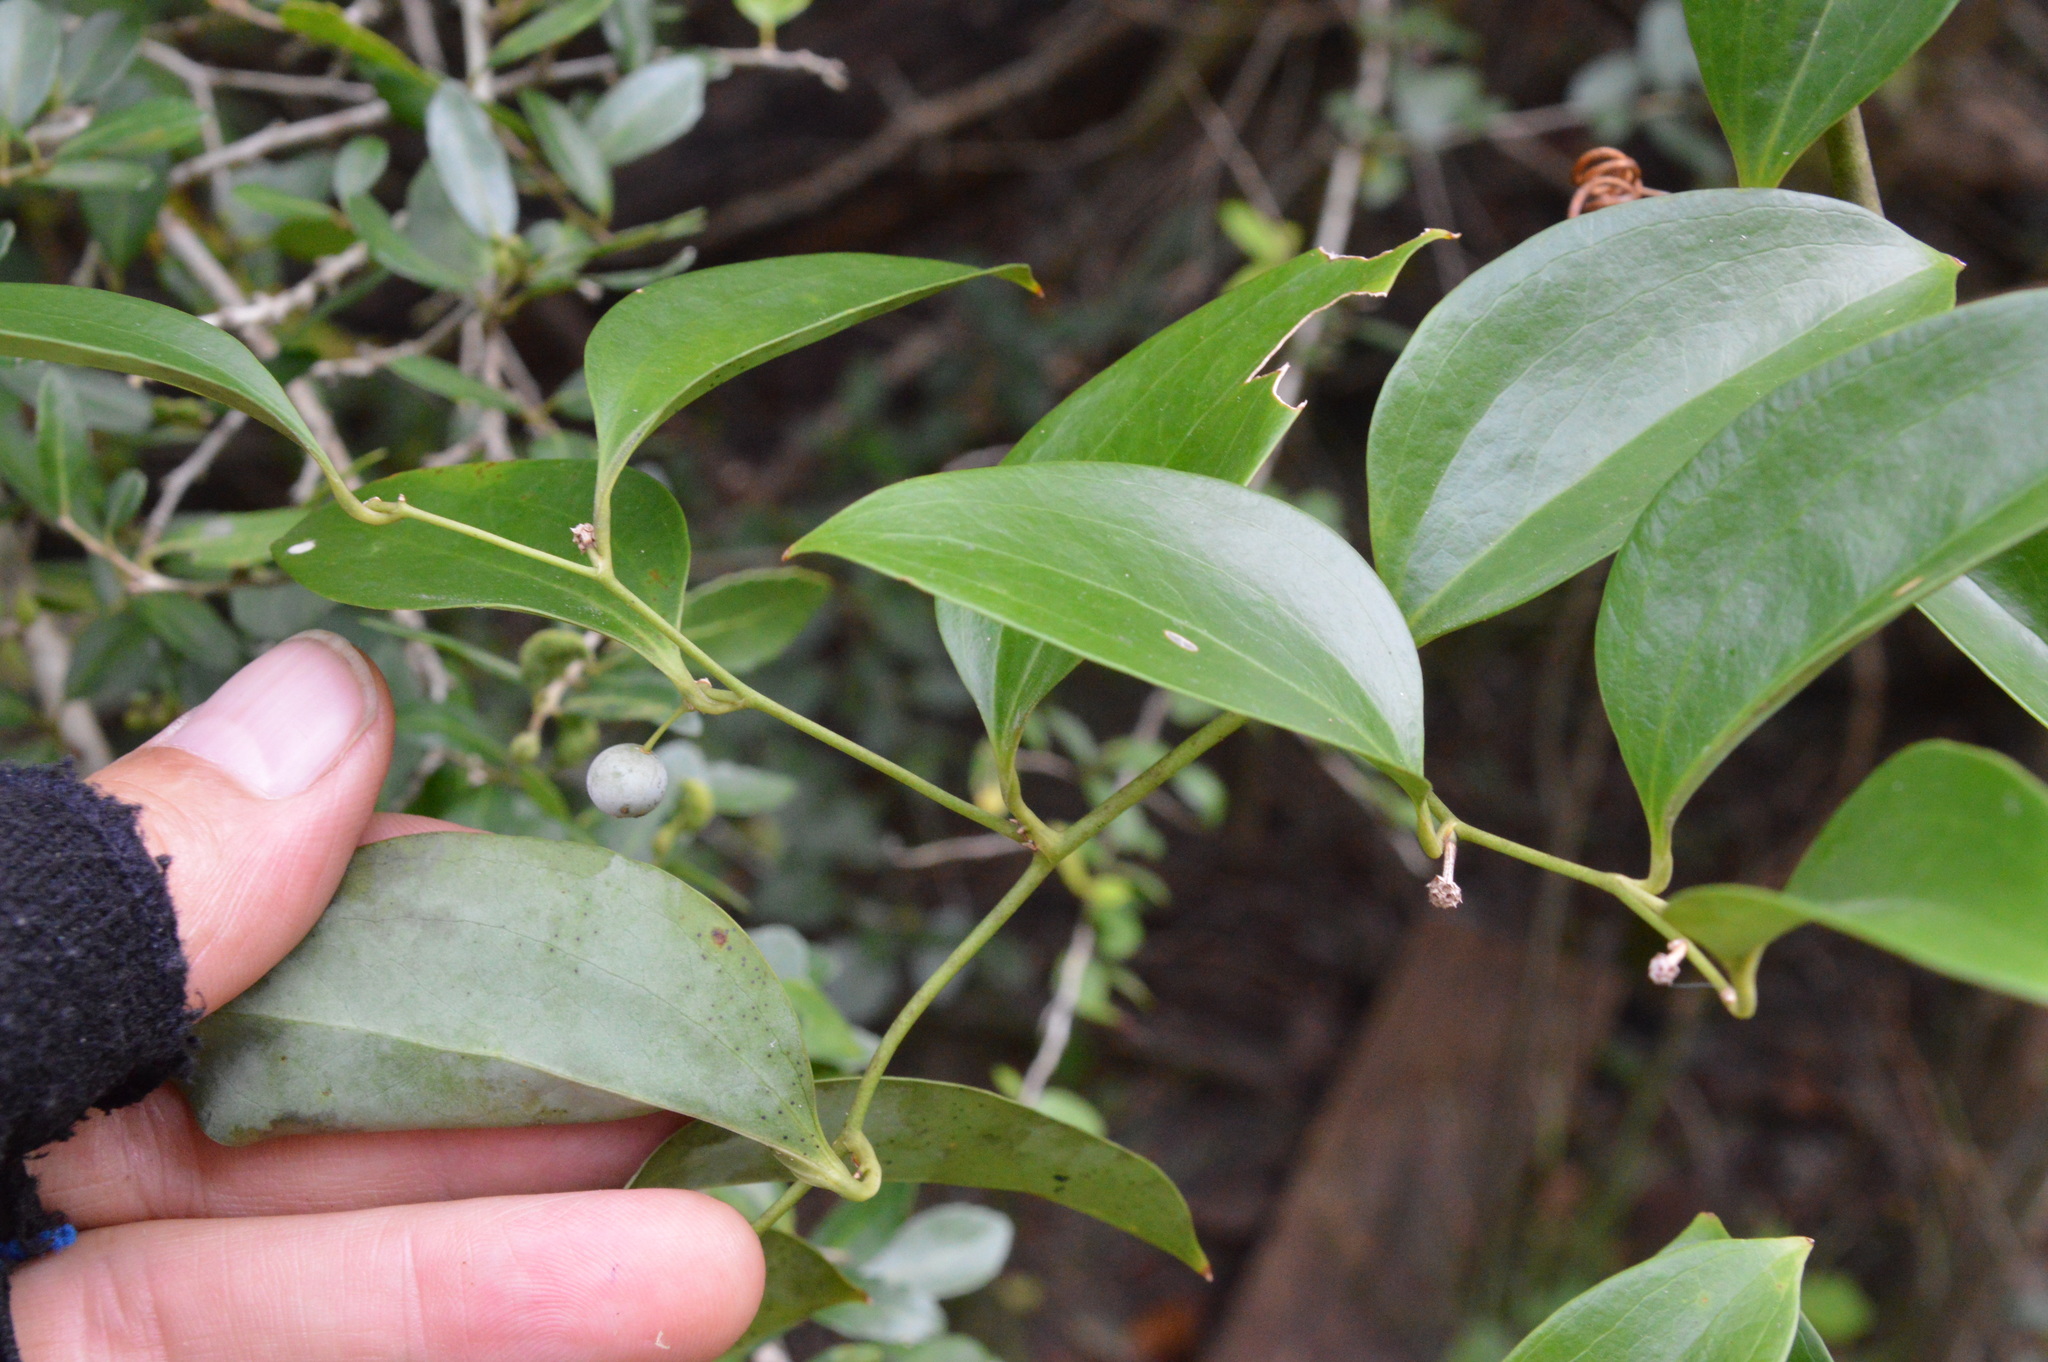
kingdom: Plantae
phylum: Tracheophyta
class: Liliopsida
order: Liliales
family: Smilacaceae
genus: Smilax
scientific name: Smilax maritima
